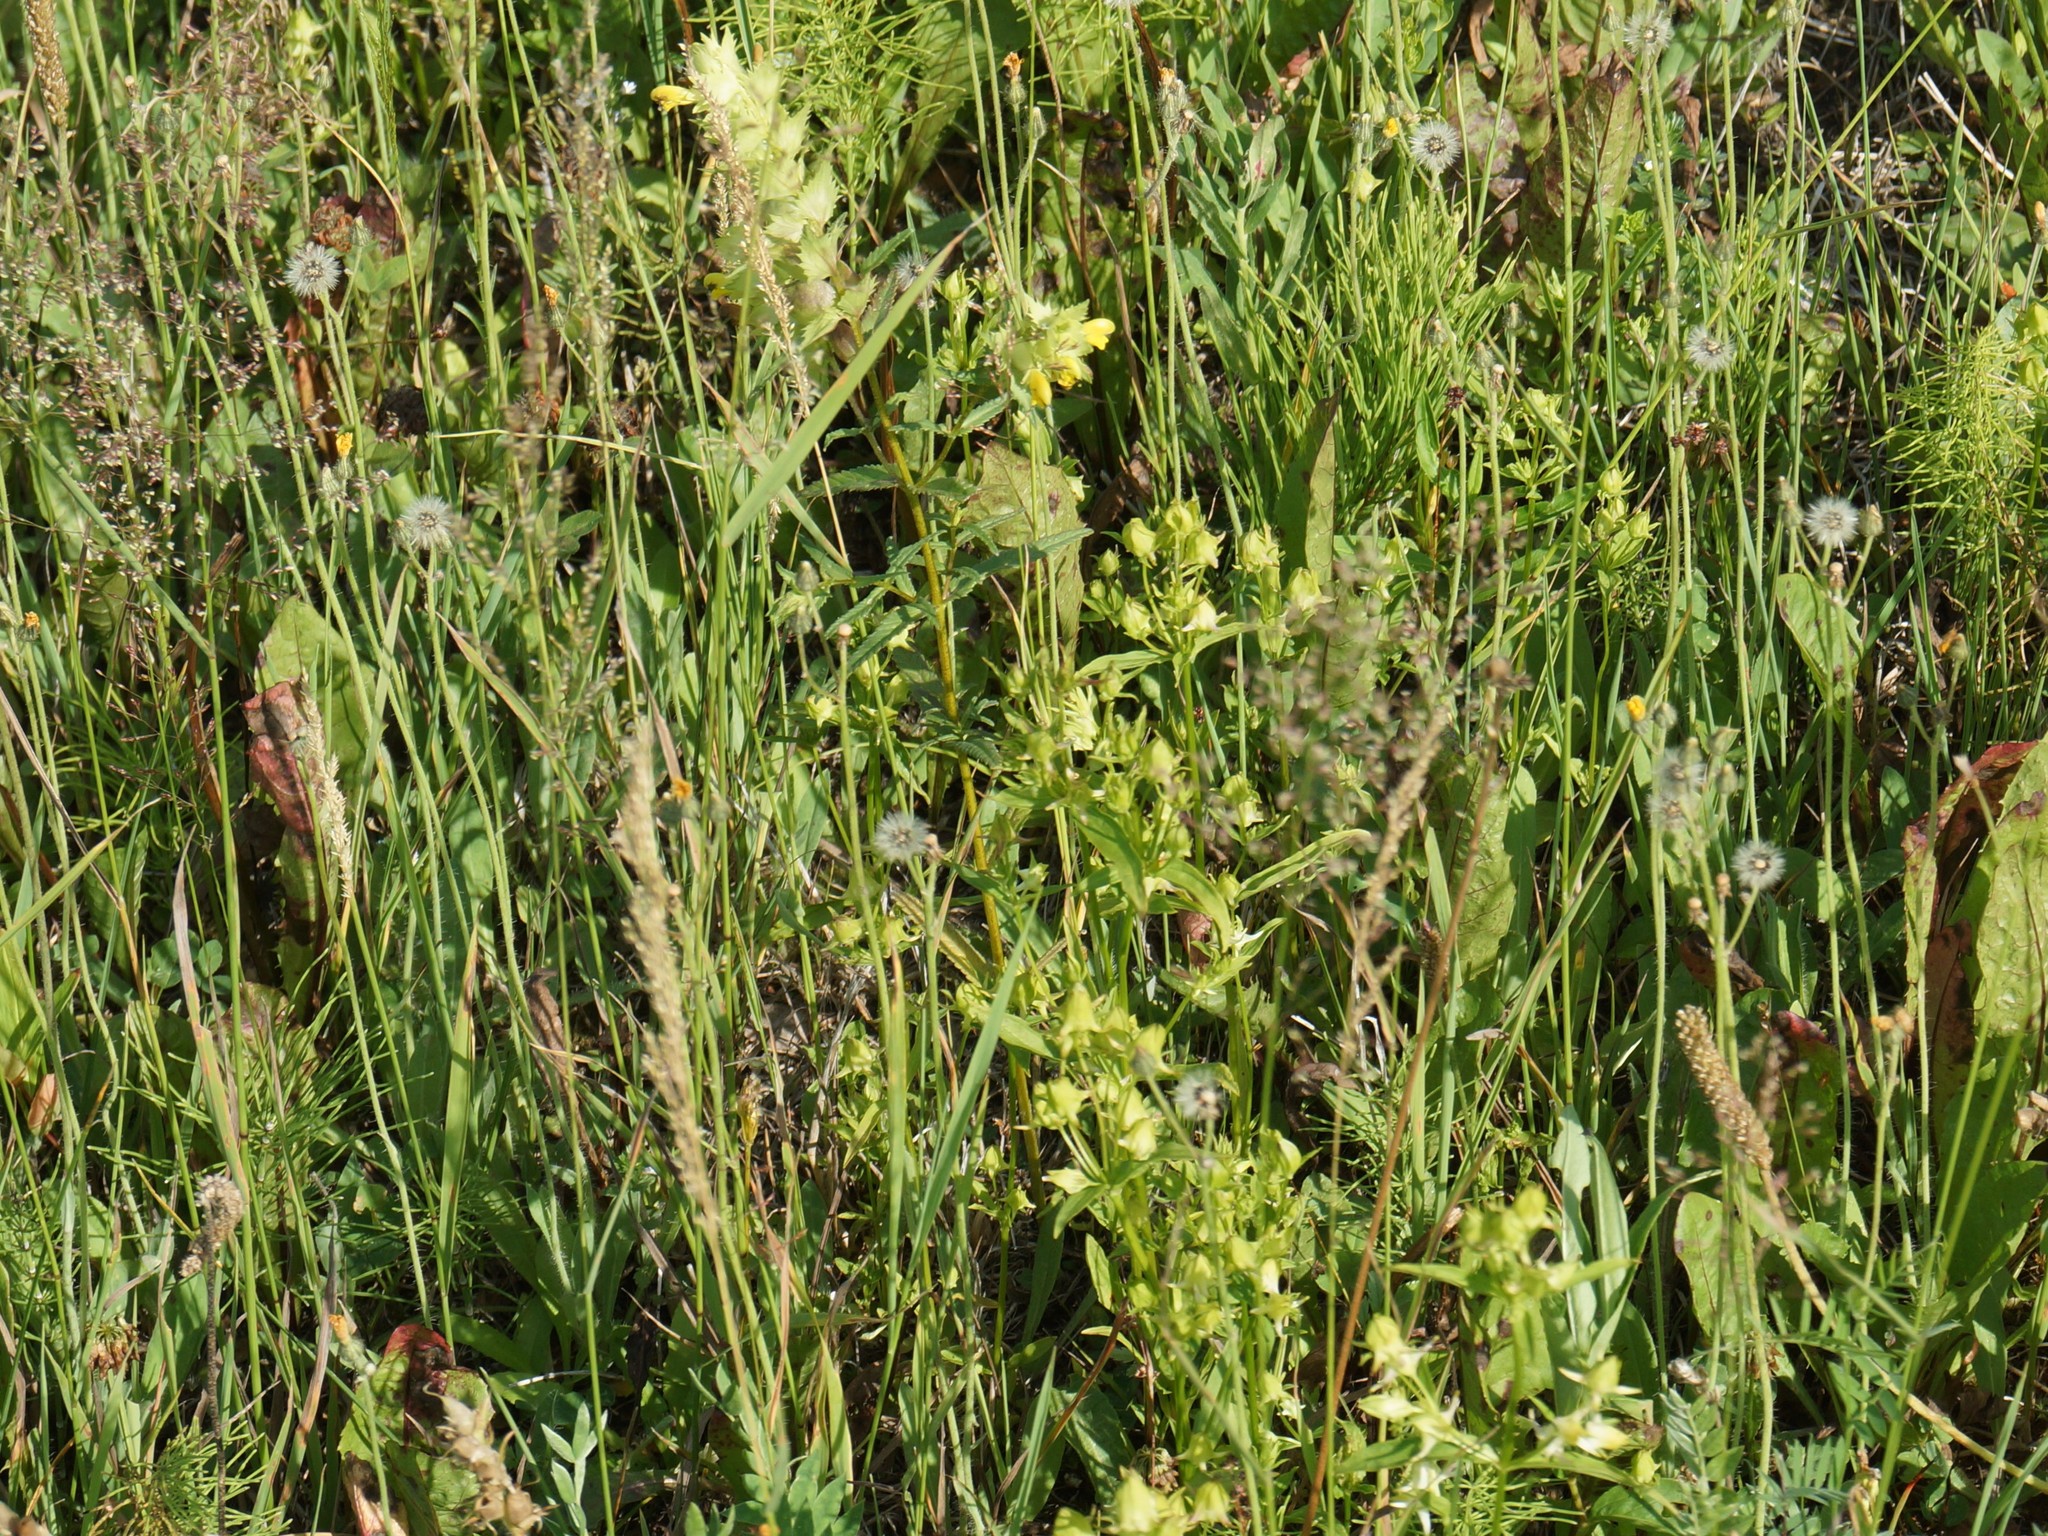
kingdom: Plantae
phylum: Tracheophyta
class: Magnoliopsida
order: Lamiales
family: Orobanchaceae
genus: Rhinanthus
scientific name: Rhinanthus serotinus
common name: Late-flowering yellow rattle
